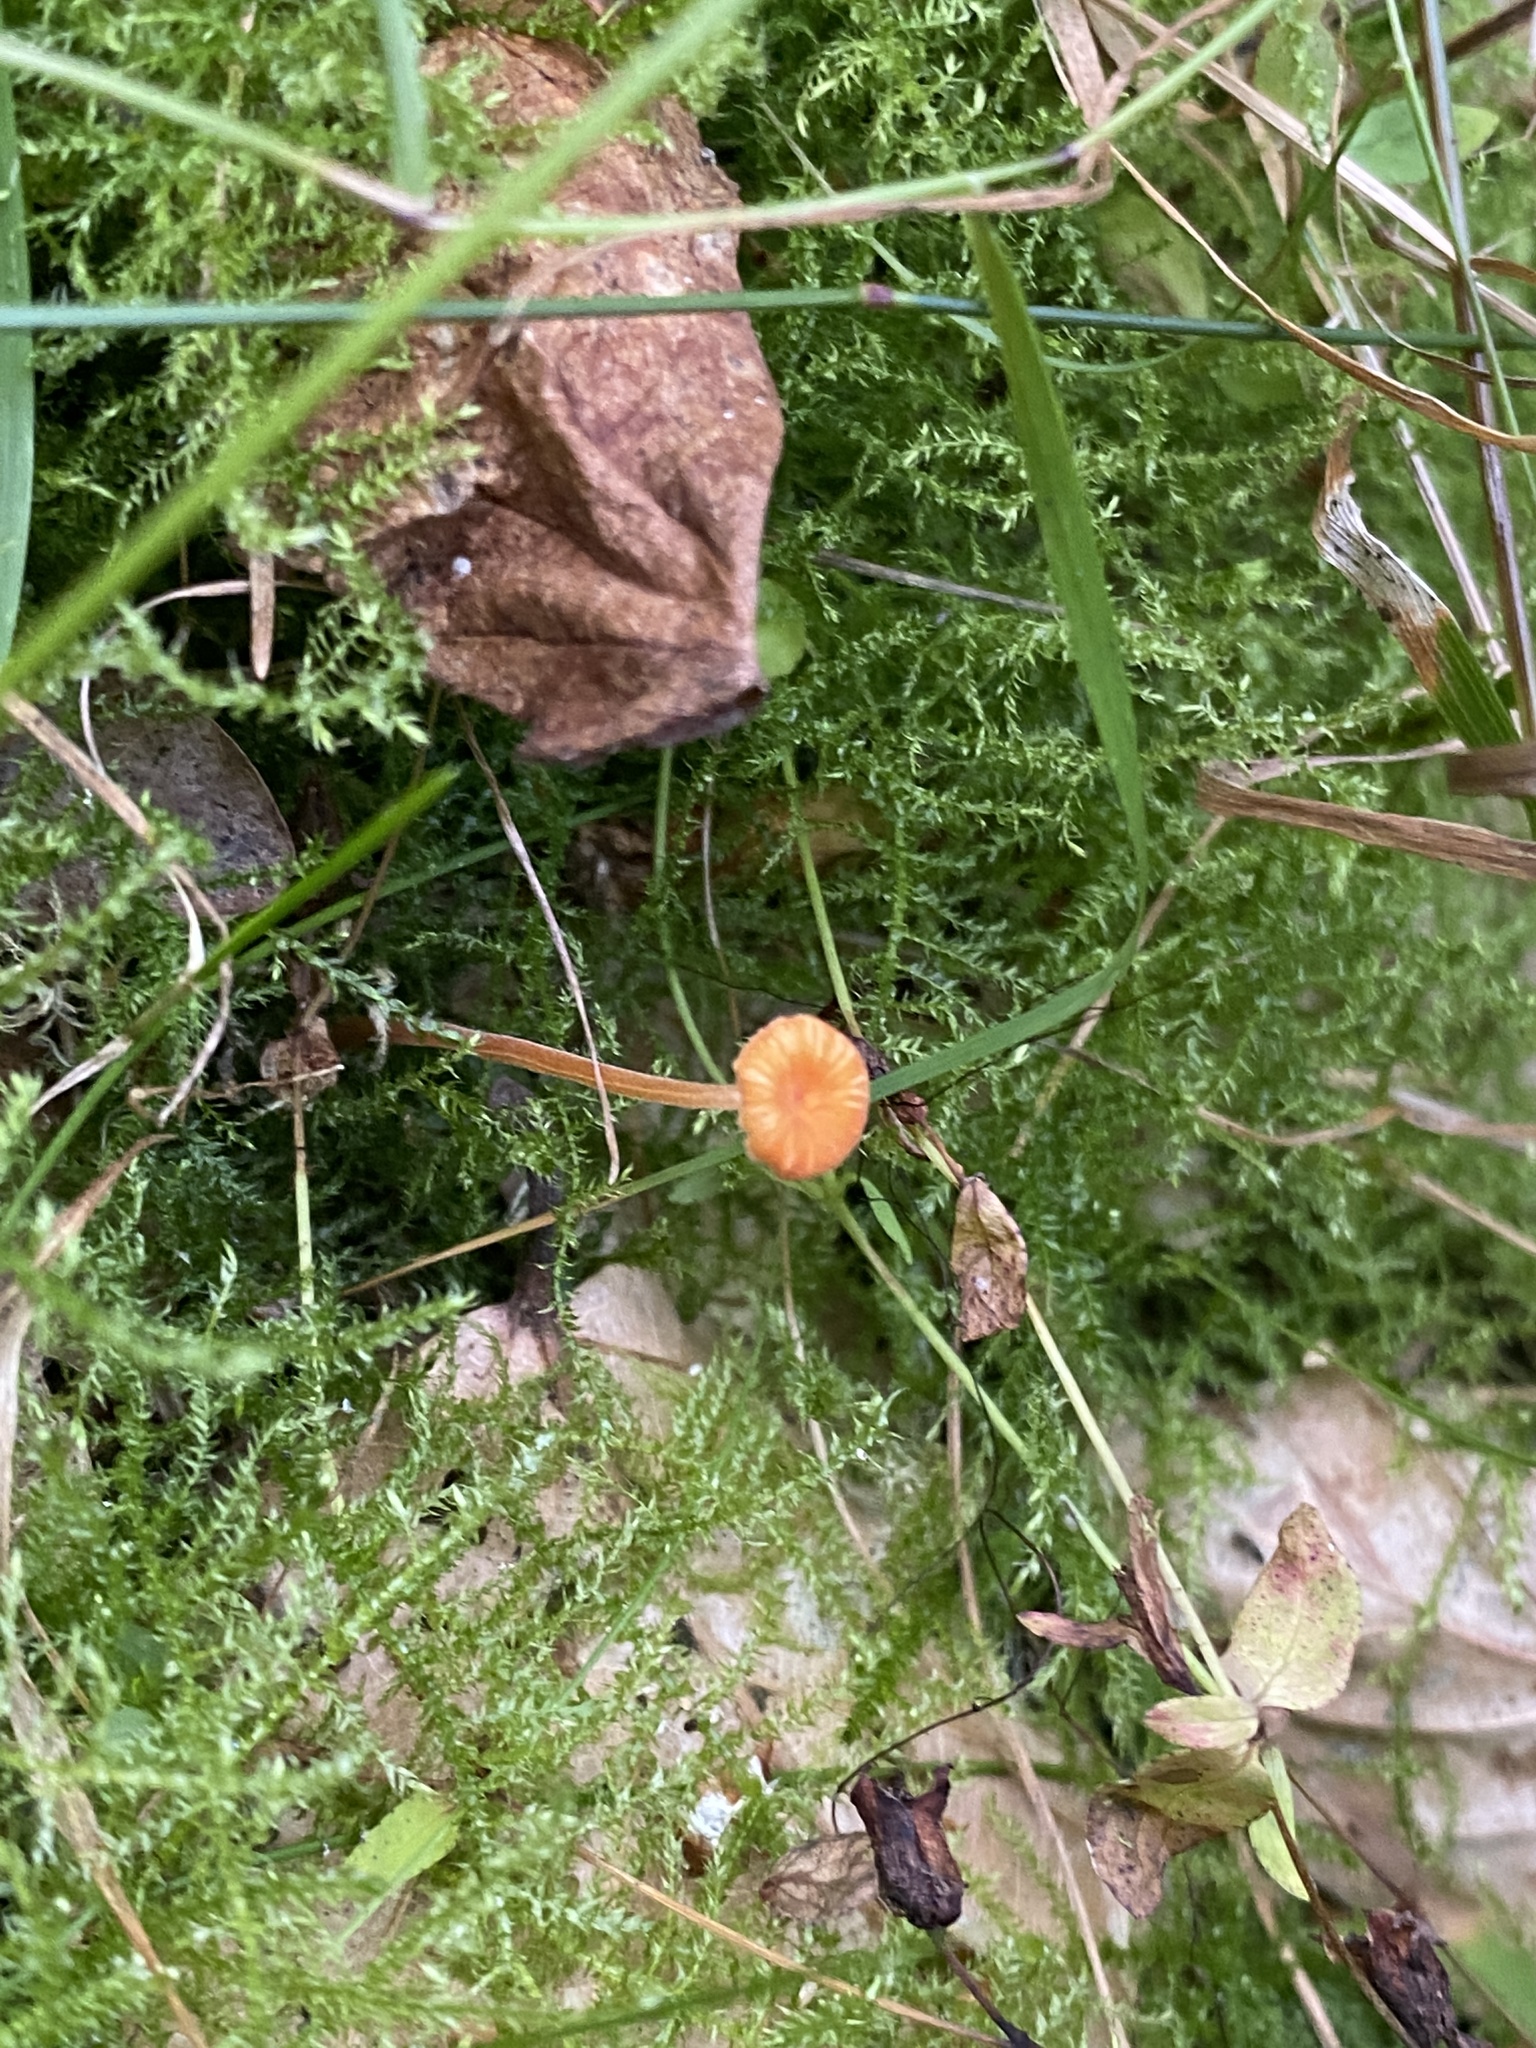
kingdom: Fungi
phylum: Basidiomycota
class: Agaricomycetes
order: Hymenochaetales
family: Rickenellaceae
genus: Rickenella
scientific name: Rickenella fibula
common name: Orange mosscap
